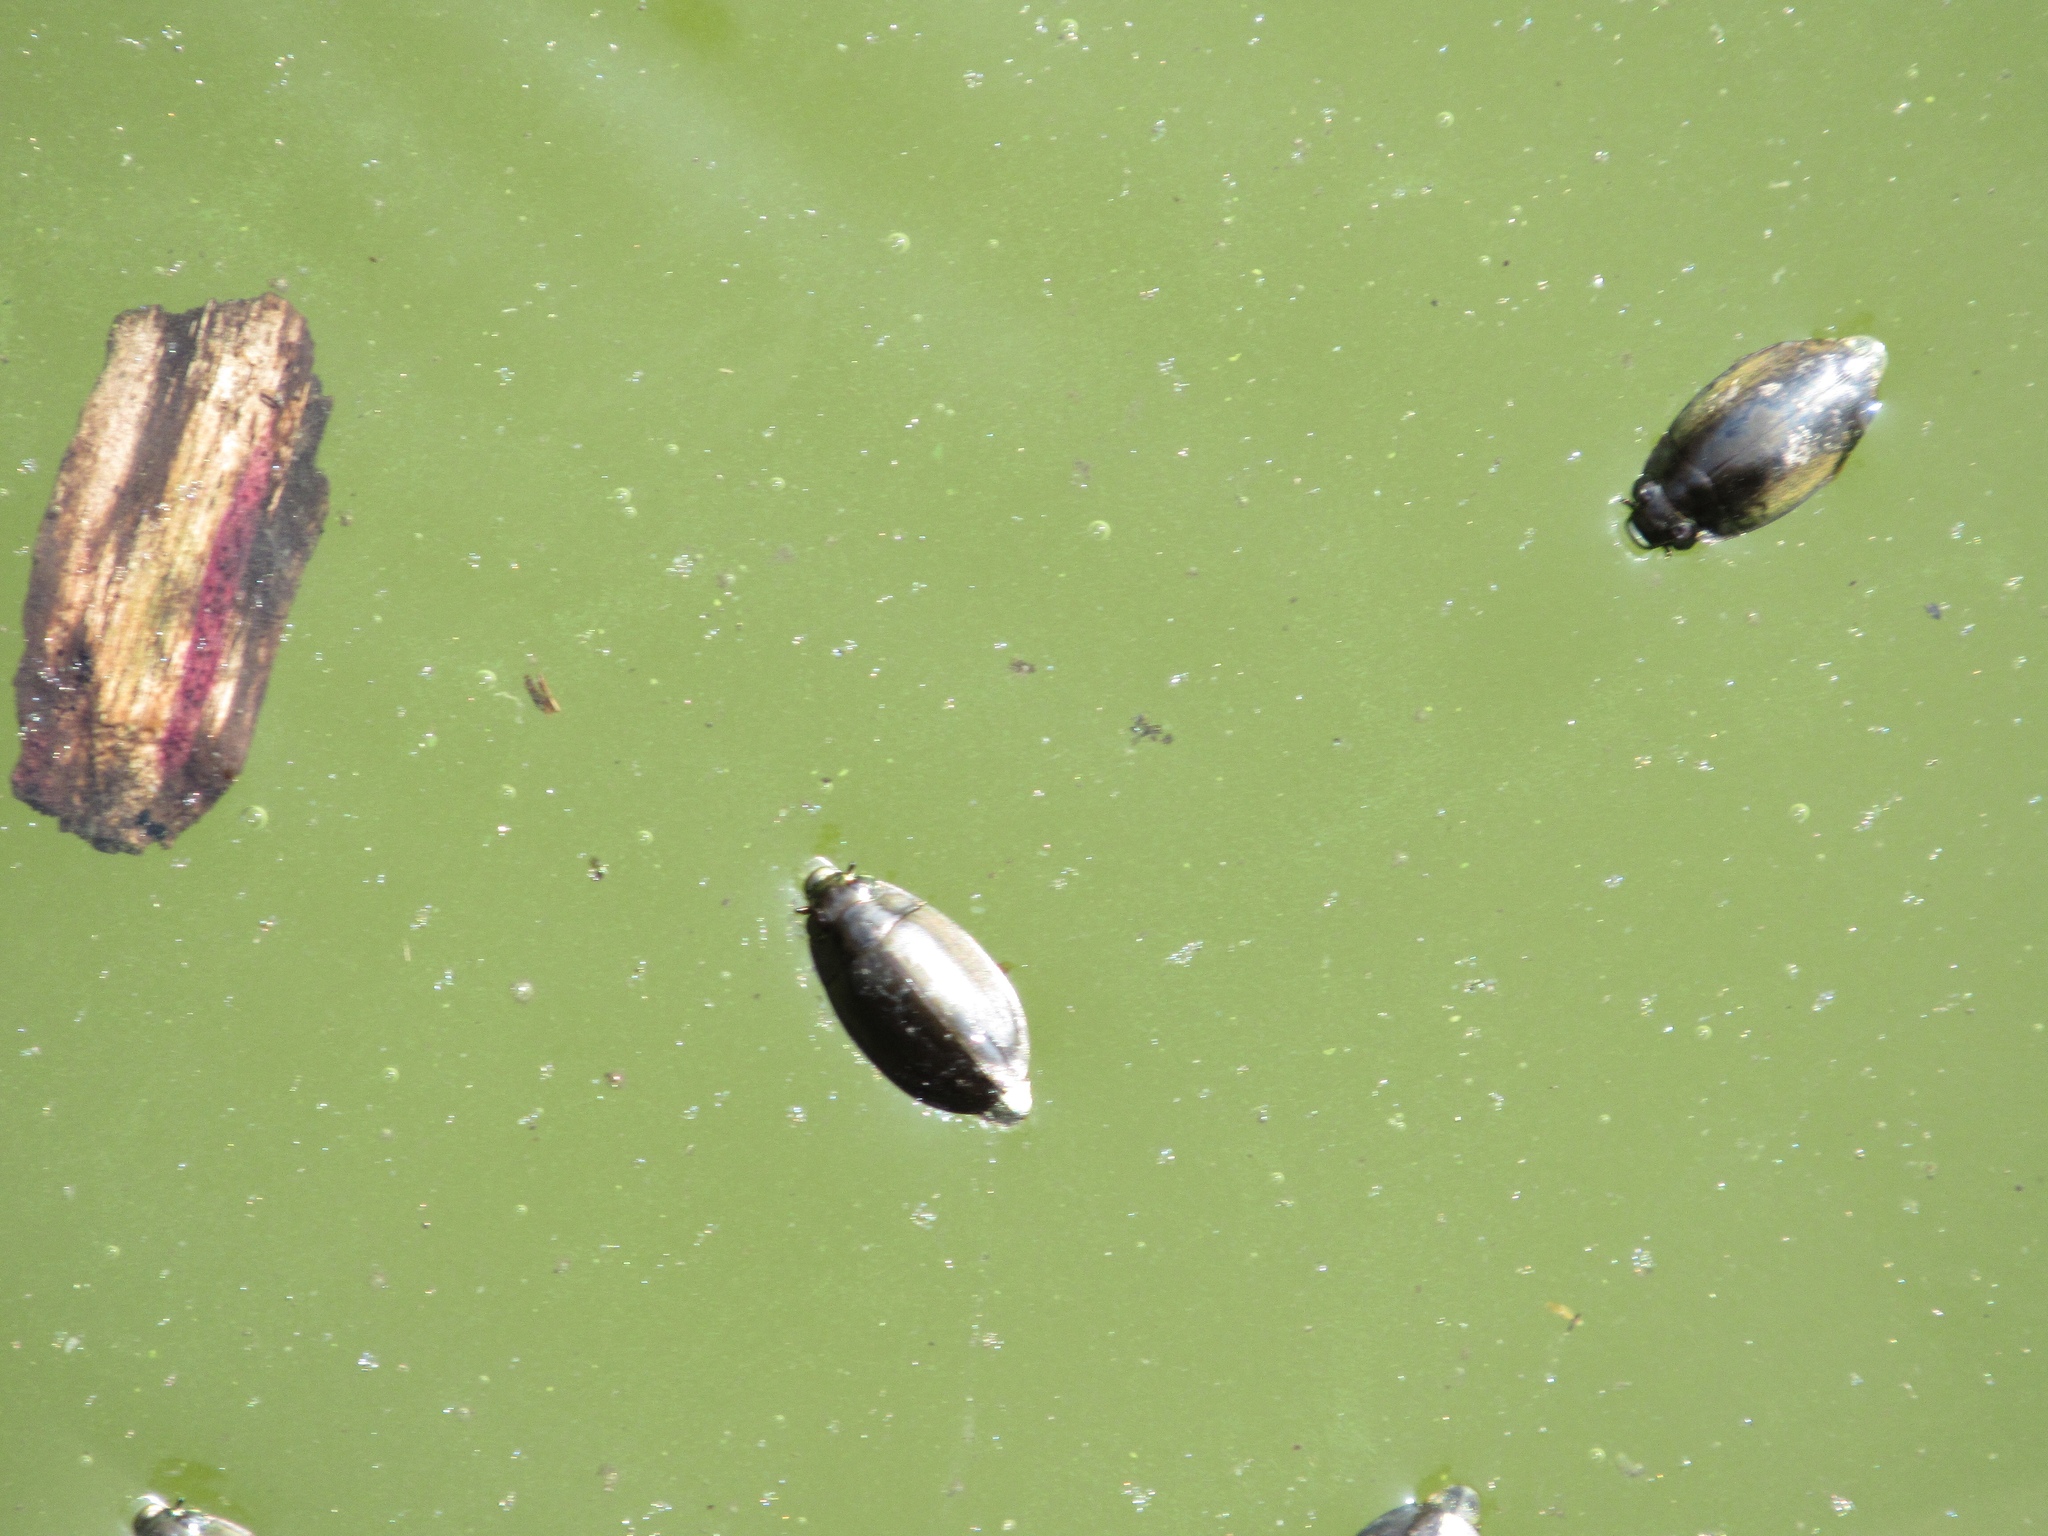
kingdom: Animalia
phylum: Arthropoda
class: Insecta
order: Coleoptera
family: Gyrinidae
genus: Dineutus
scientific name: Dineutus
